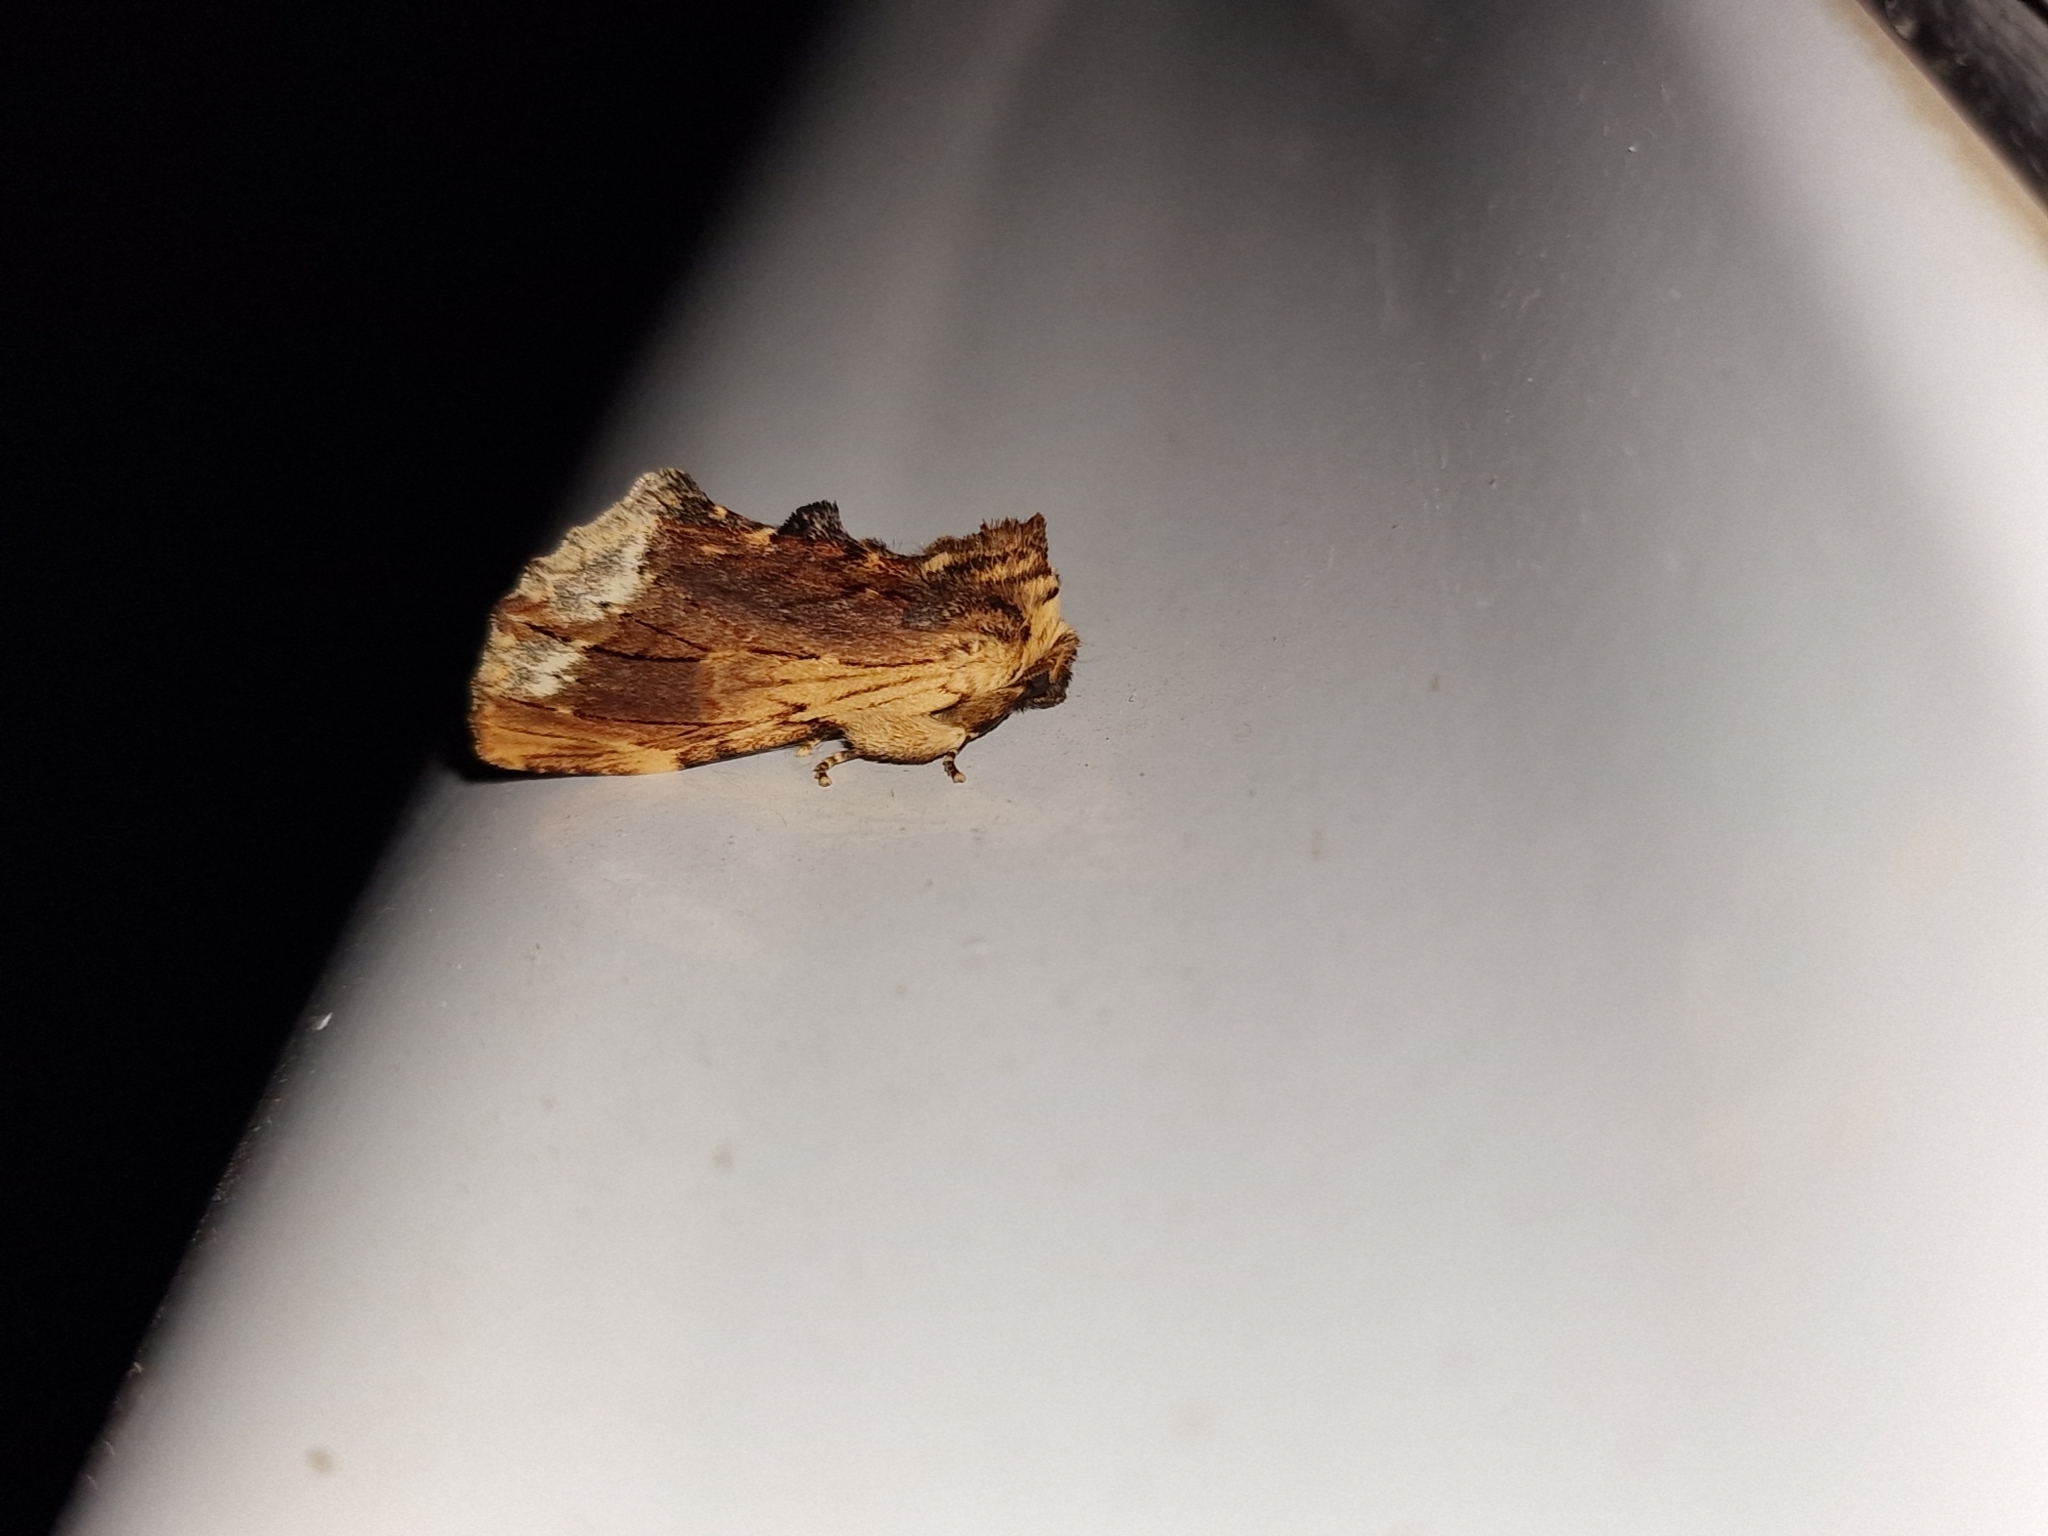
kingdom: Animalia
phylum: Arthropoda
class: Insecta
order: Lepidoptera
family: Notodontidae
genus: Ptilodon
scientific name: Ptilodon cucullina
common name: Maple prominent
